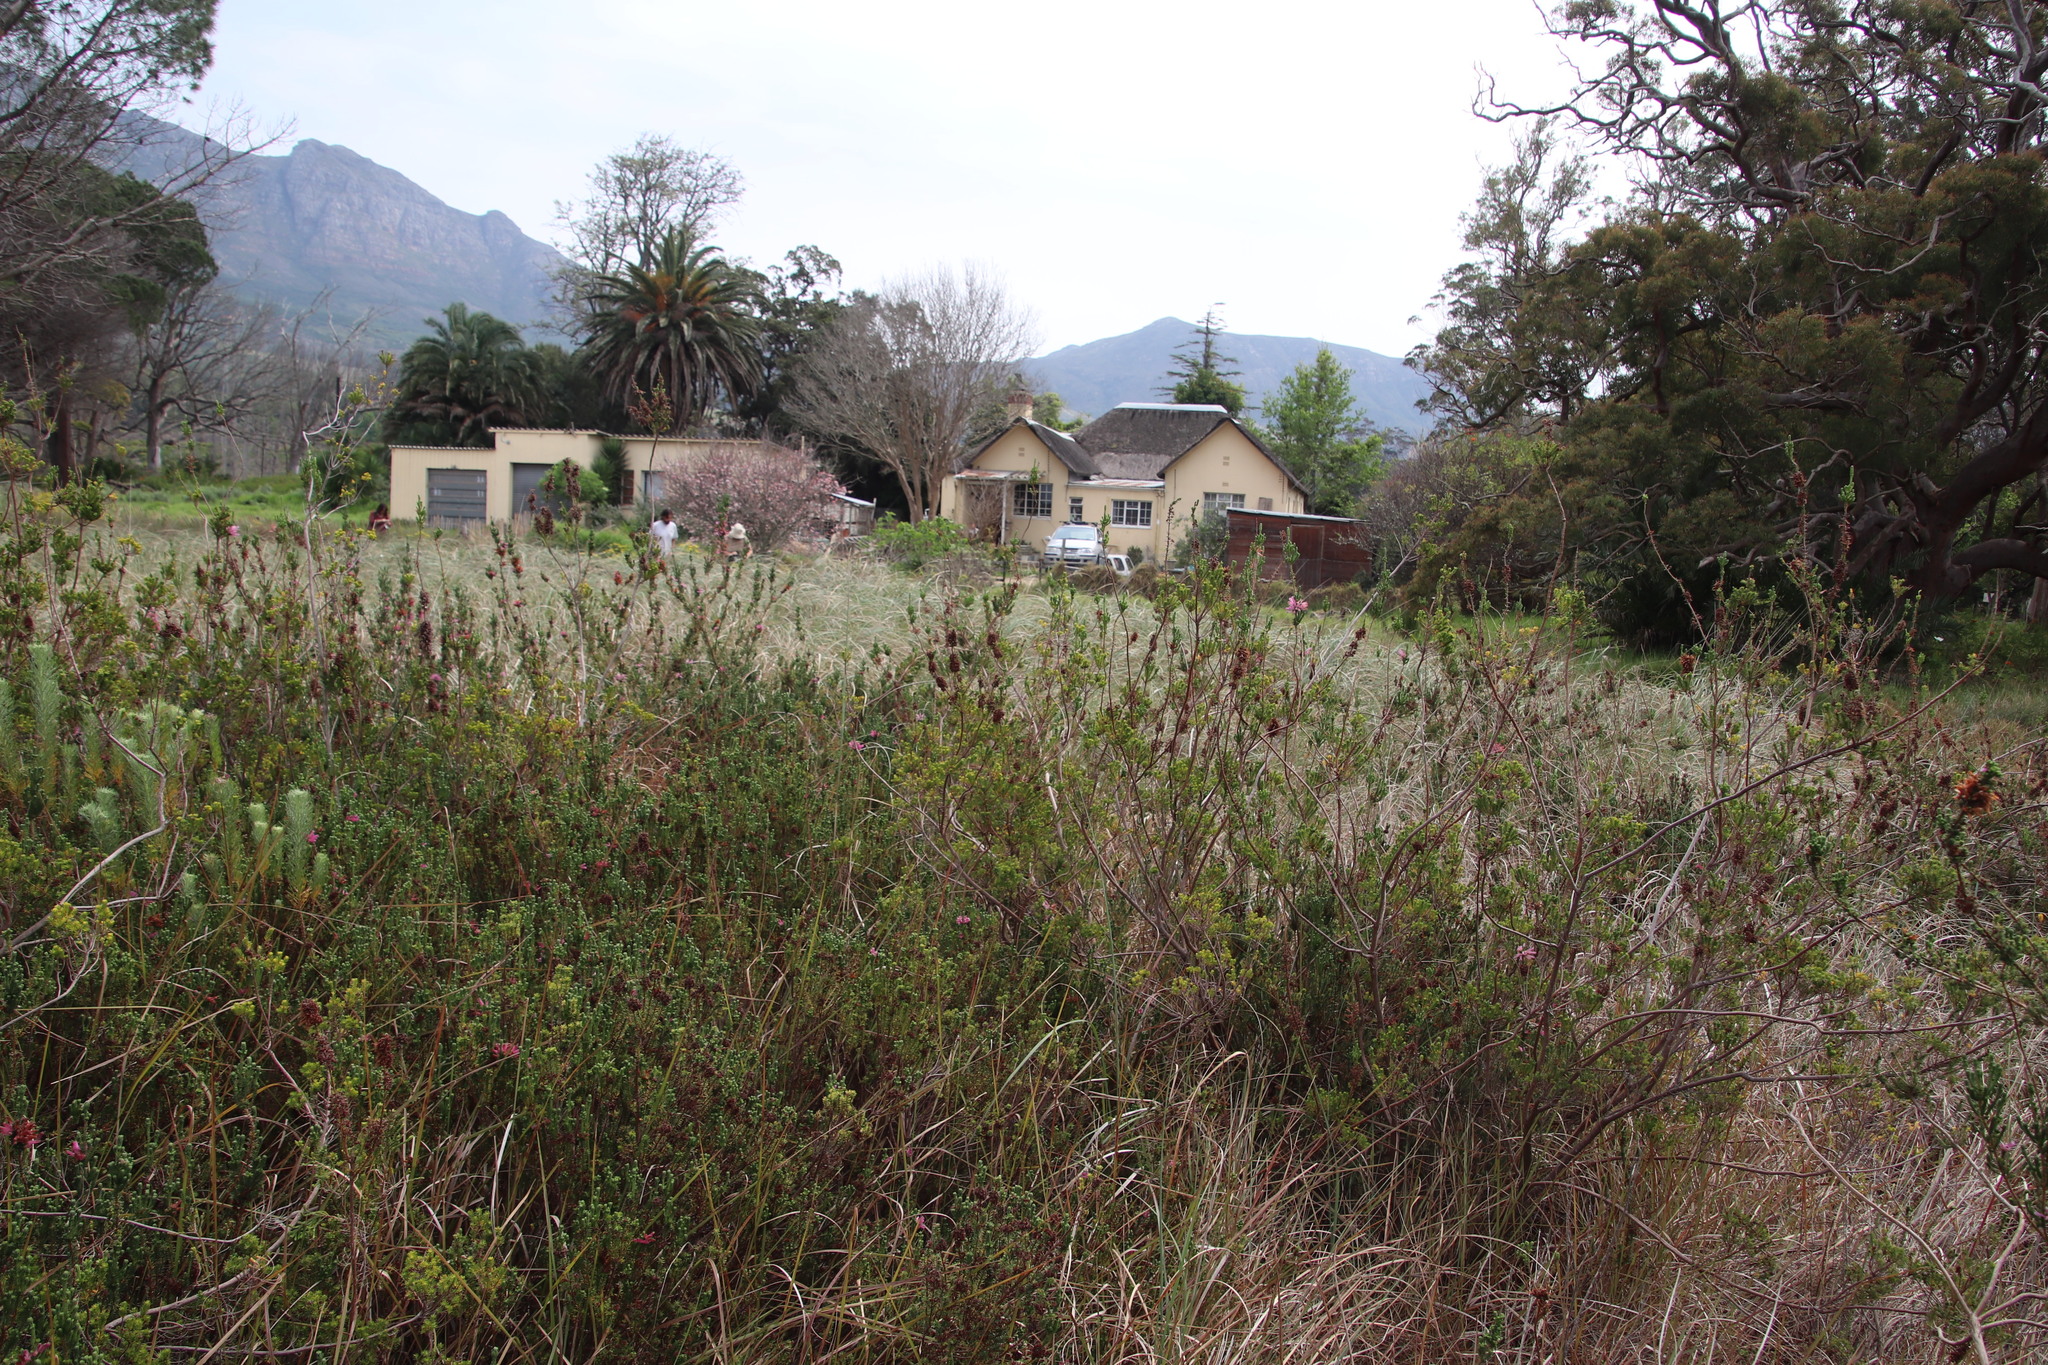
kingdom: Plantae
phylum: Tracheophyta
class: Magnoliopsida
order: Ericales
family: Ericaceae
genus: Erica
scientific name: Erica verticillata
